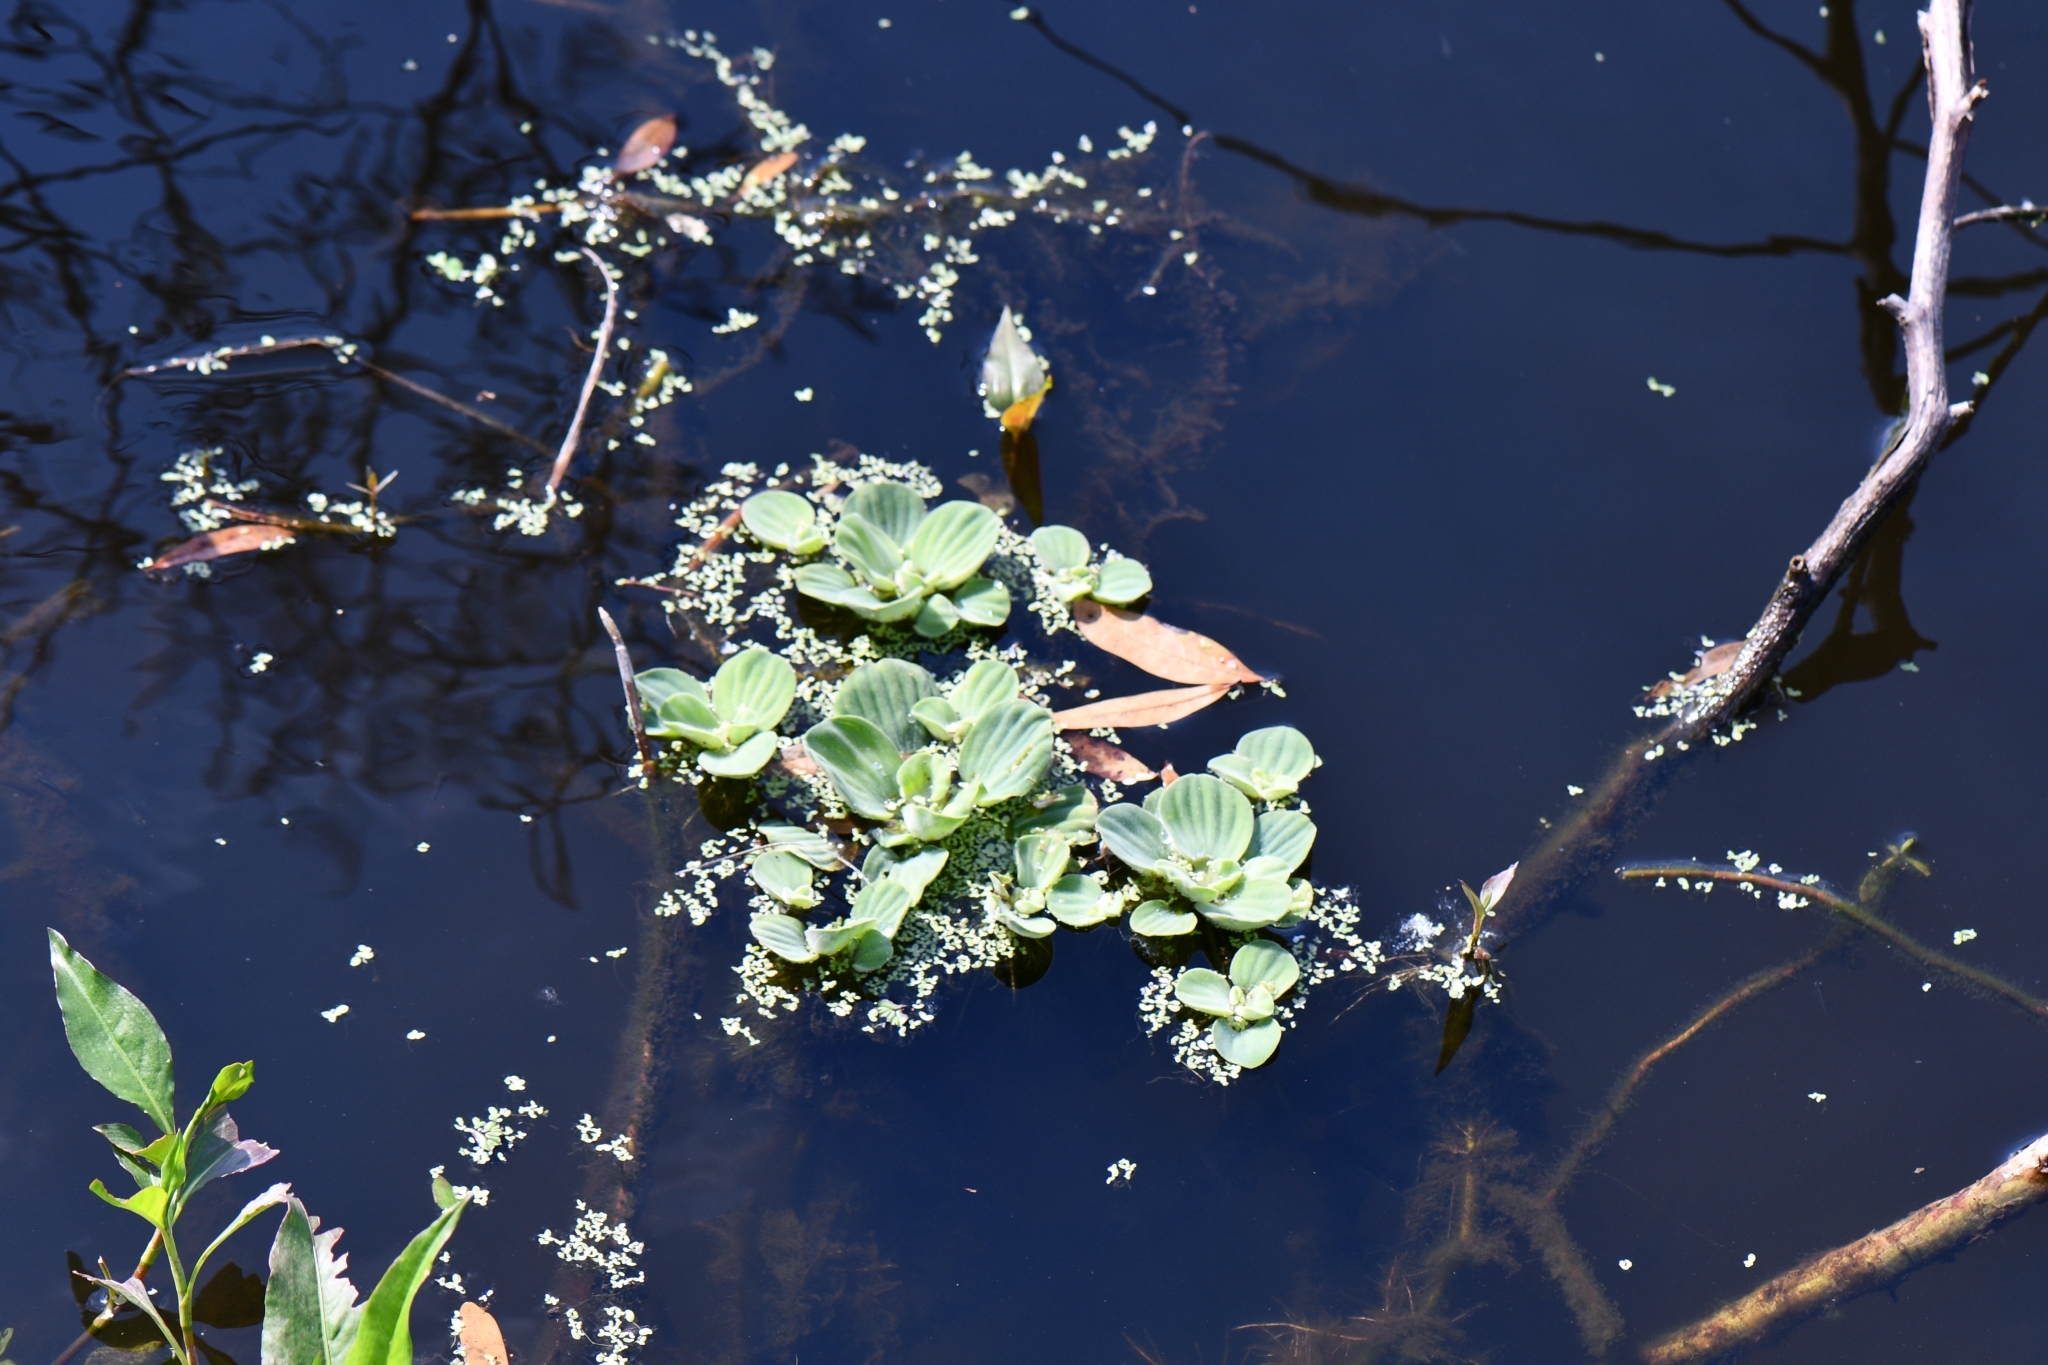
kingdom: Plantae
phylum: Tracheophyta
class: Liliopsida
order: Alismatales
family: Araceae
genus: Pistia
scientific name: Pistia stratiotes
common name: Water lettuce
